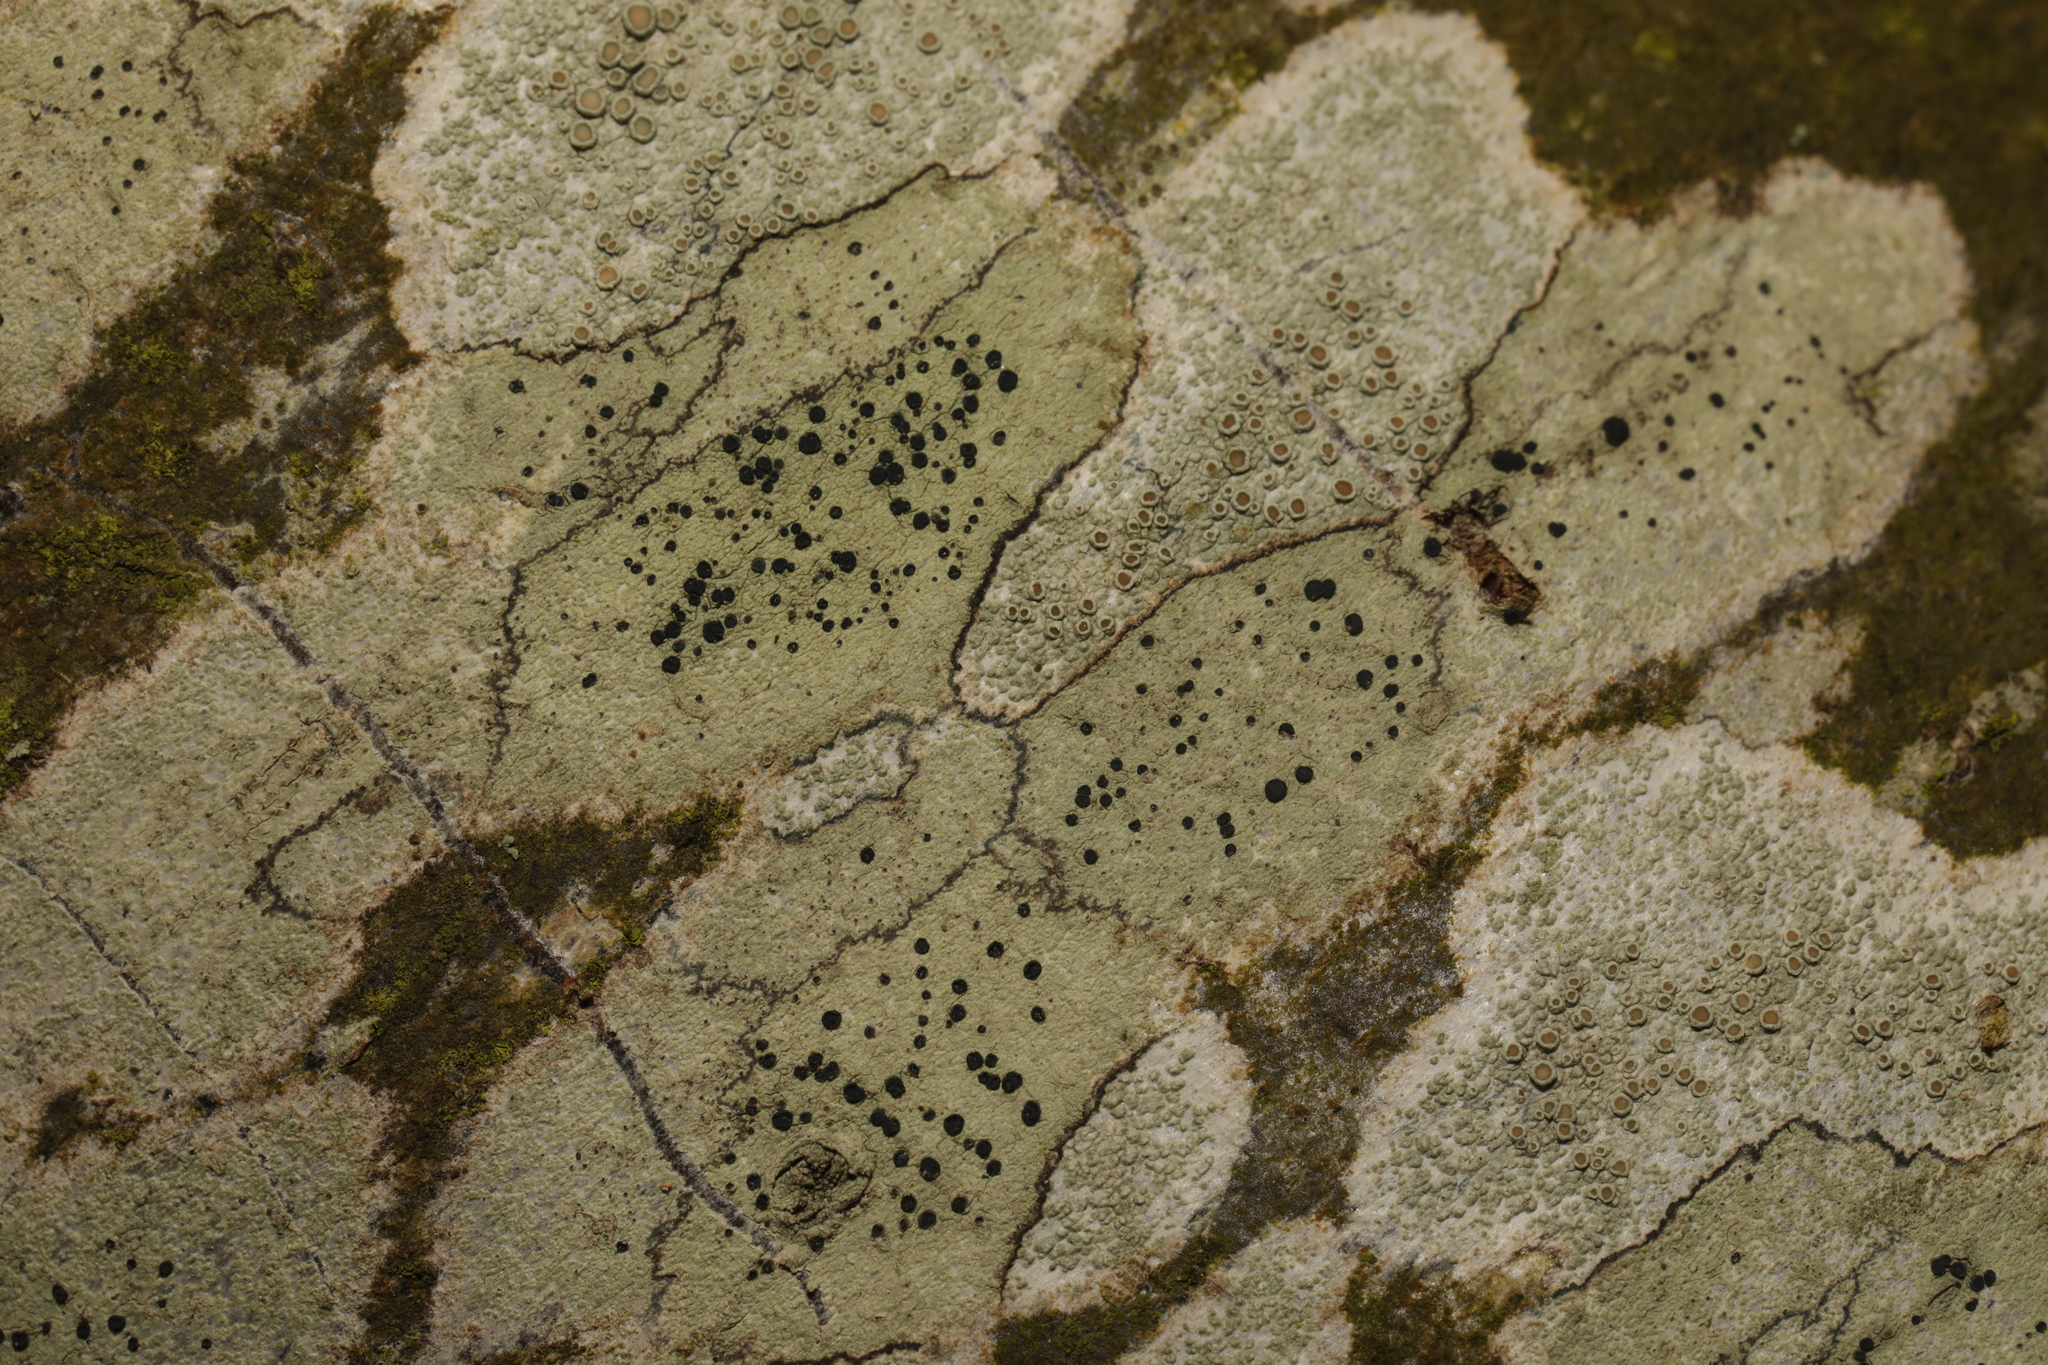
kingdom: Fungi
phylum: Ascomycota
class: Lecanoromycetes
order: Lecanorales
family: Lecanoraceae
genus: Lecidella
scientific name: Lecidella elaeochroma
